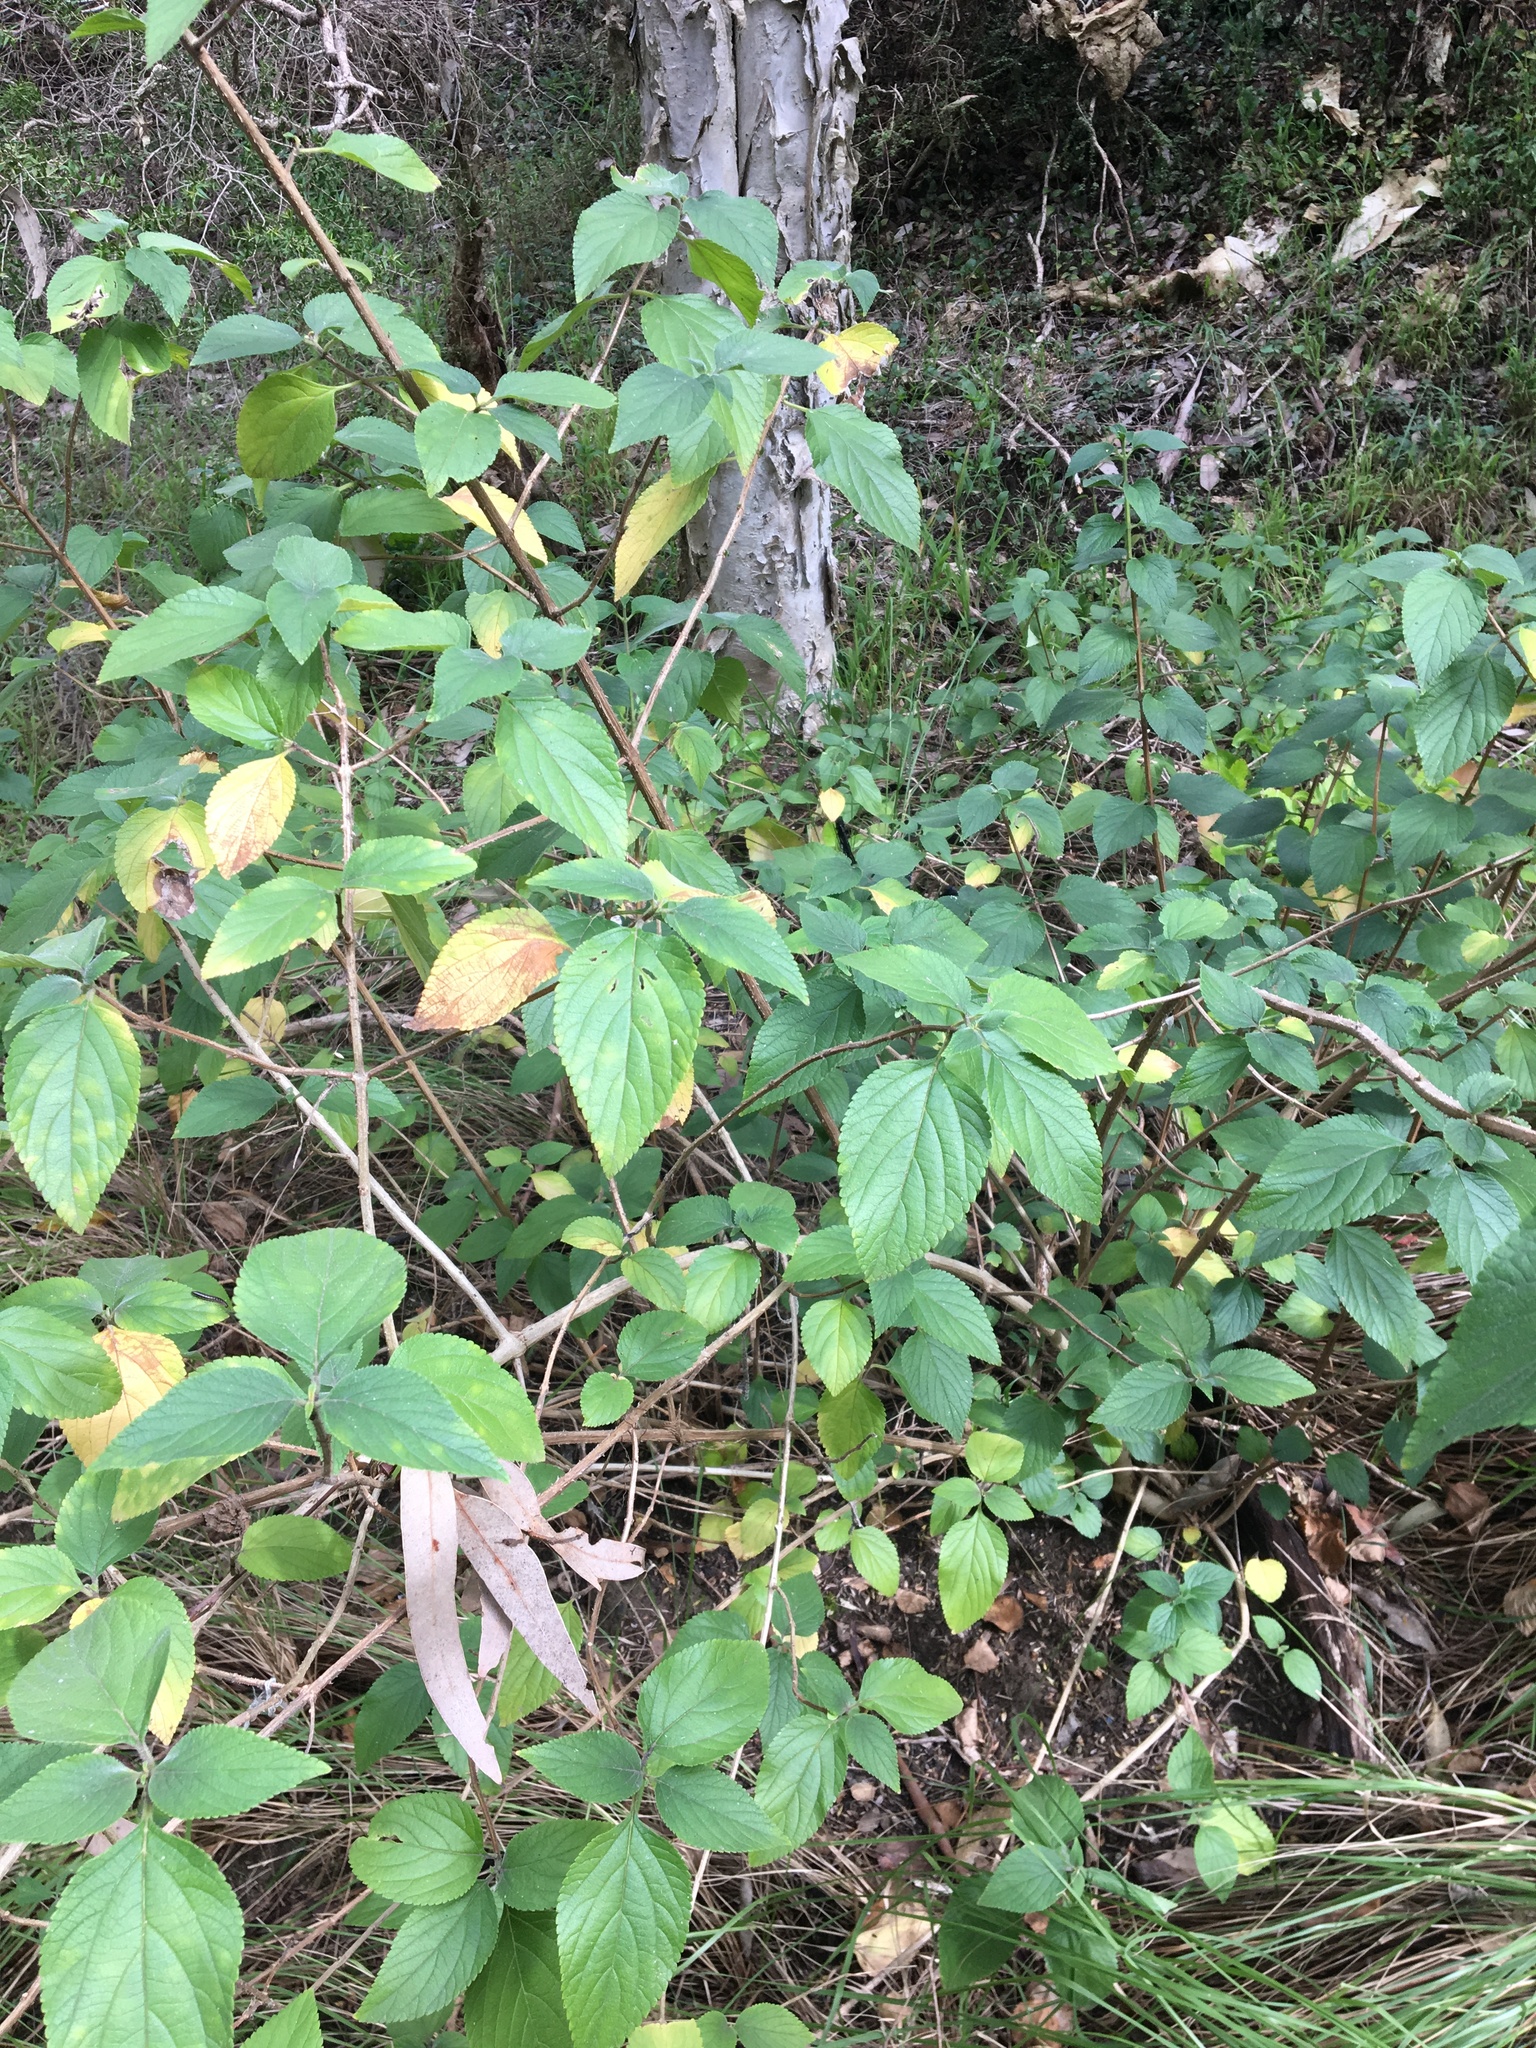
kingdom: Plantae
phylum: Tracheophyta
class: Magnoliopsida
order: Lamiales
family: Verbenaceae
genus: Lantana
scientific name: Lantana camara
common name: Lantana
